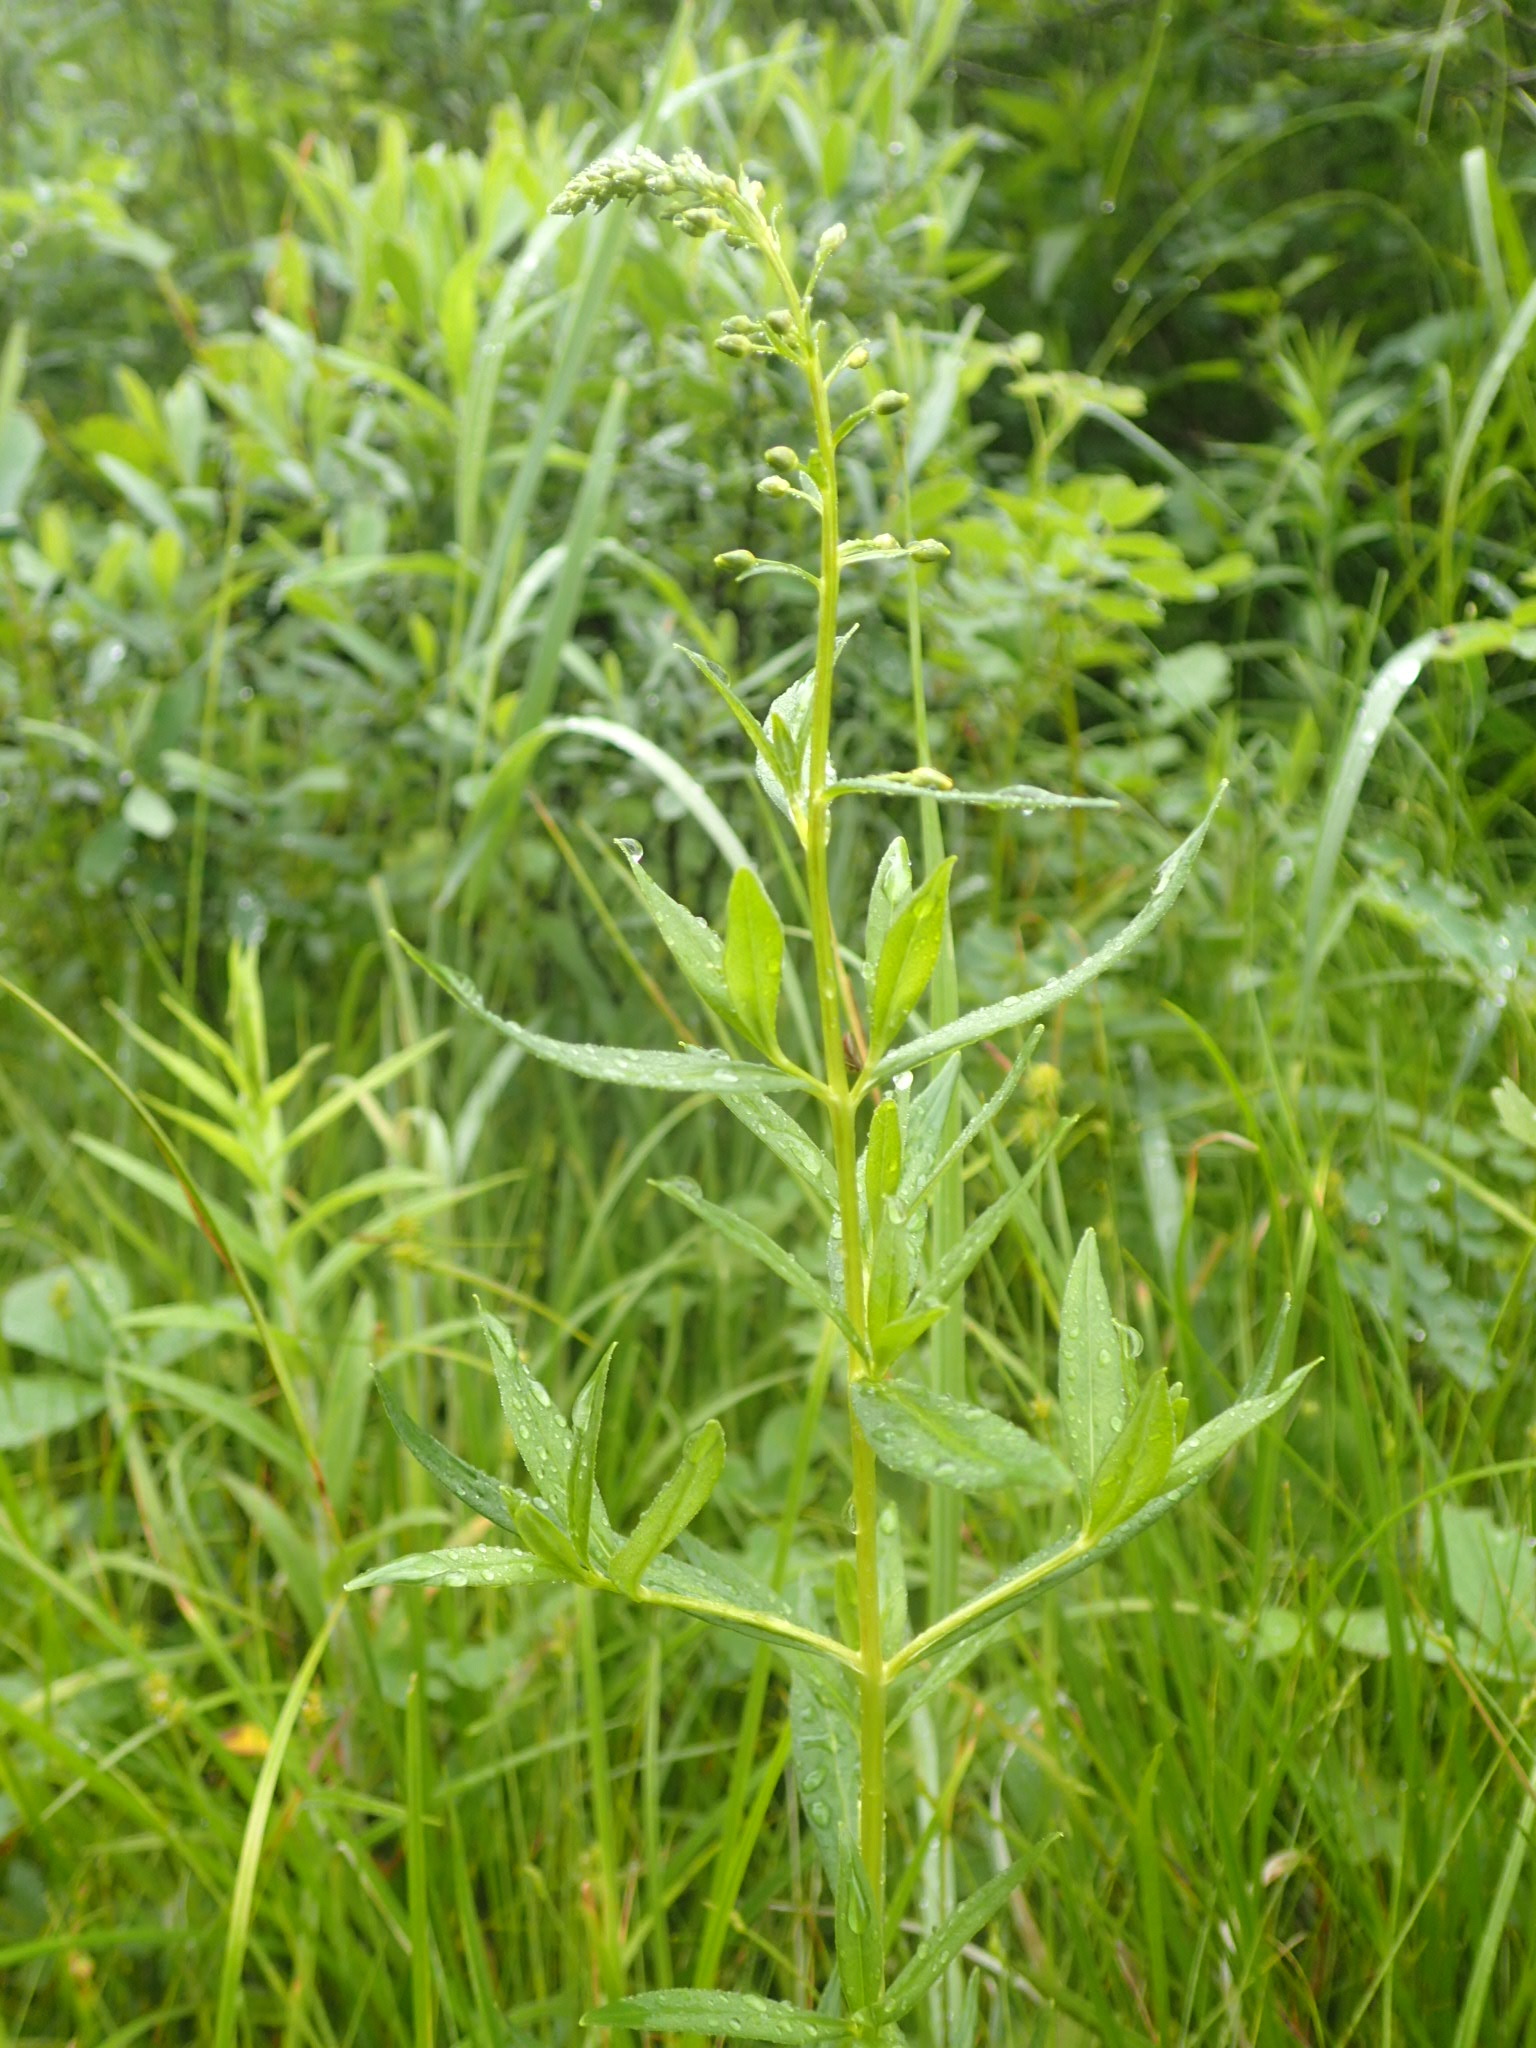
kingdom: Plantae
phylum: Tracheophyta
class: Magnoliopsida
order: Ericales
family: Primulaceae
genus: Lysimachia
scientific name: Lysimachia terrestris
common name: Lake loosestrife
